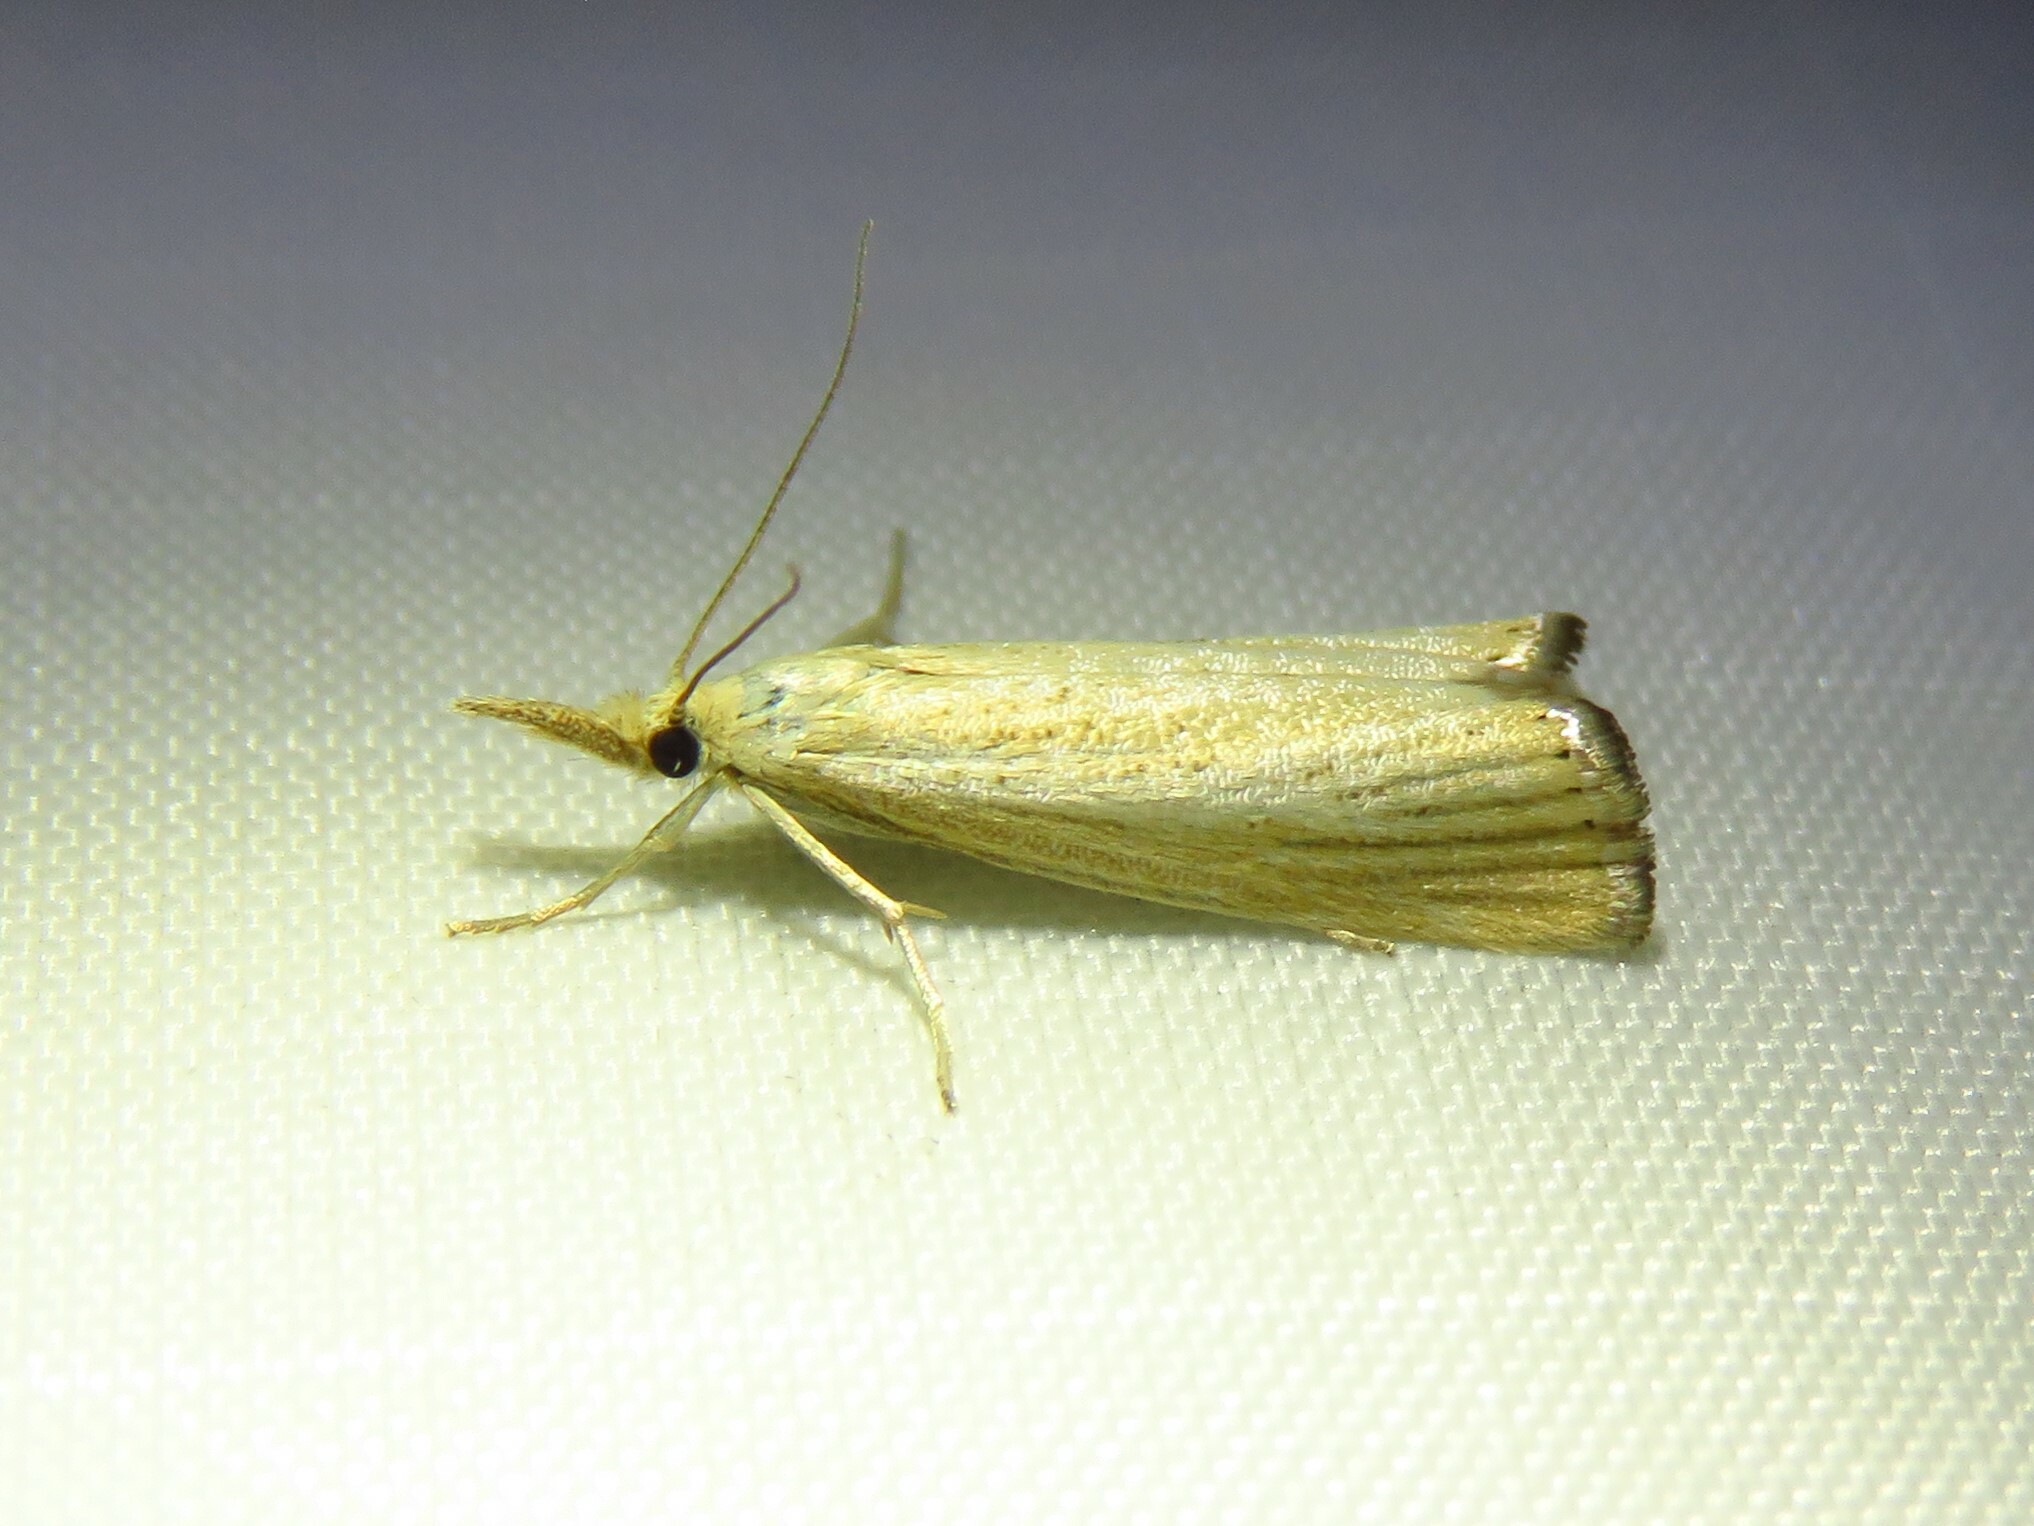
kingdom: Animalia
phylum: Arthropoda
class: Insecta
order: Lepidoptera
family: Crambidae
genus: Agriphila
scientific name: Agriphila straminella
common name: Straw grass-veneer
